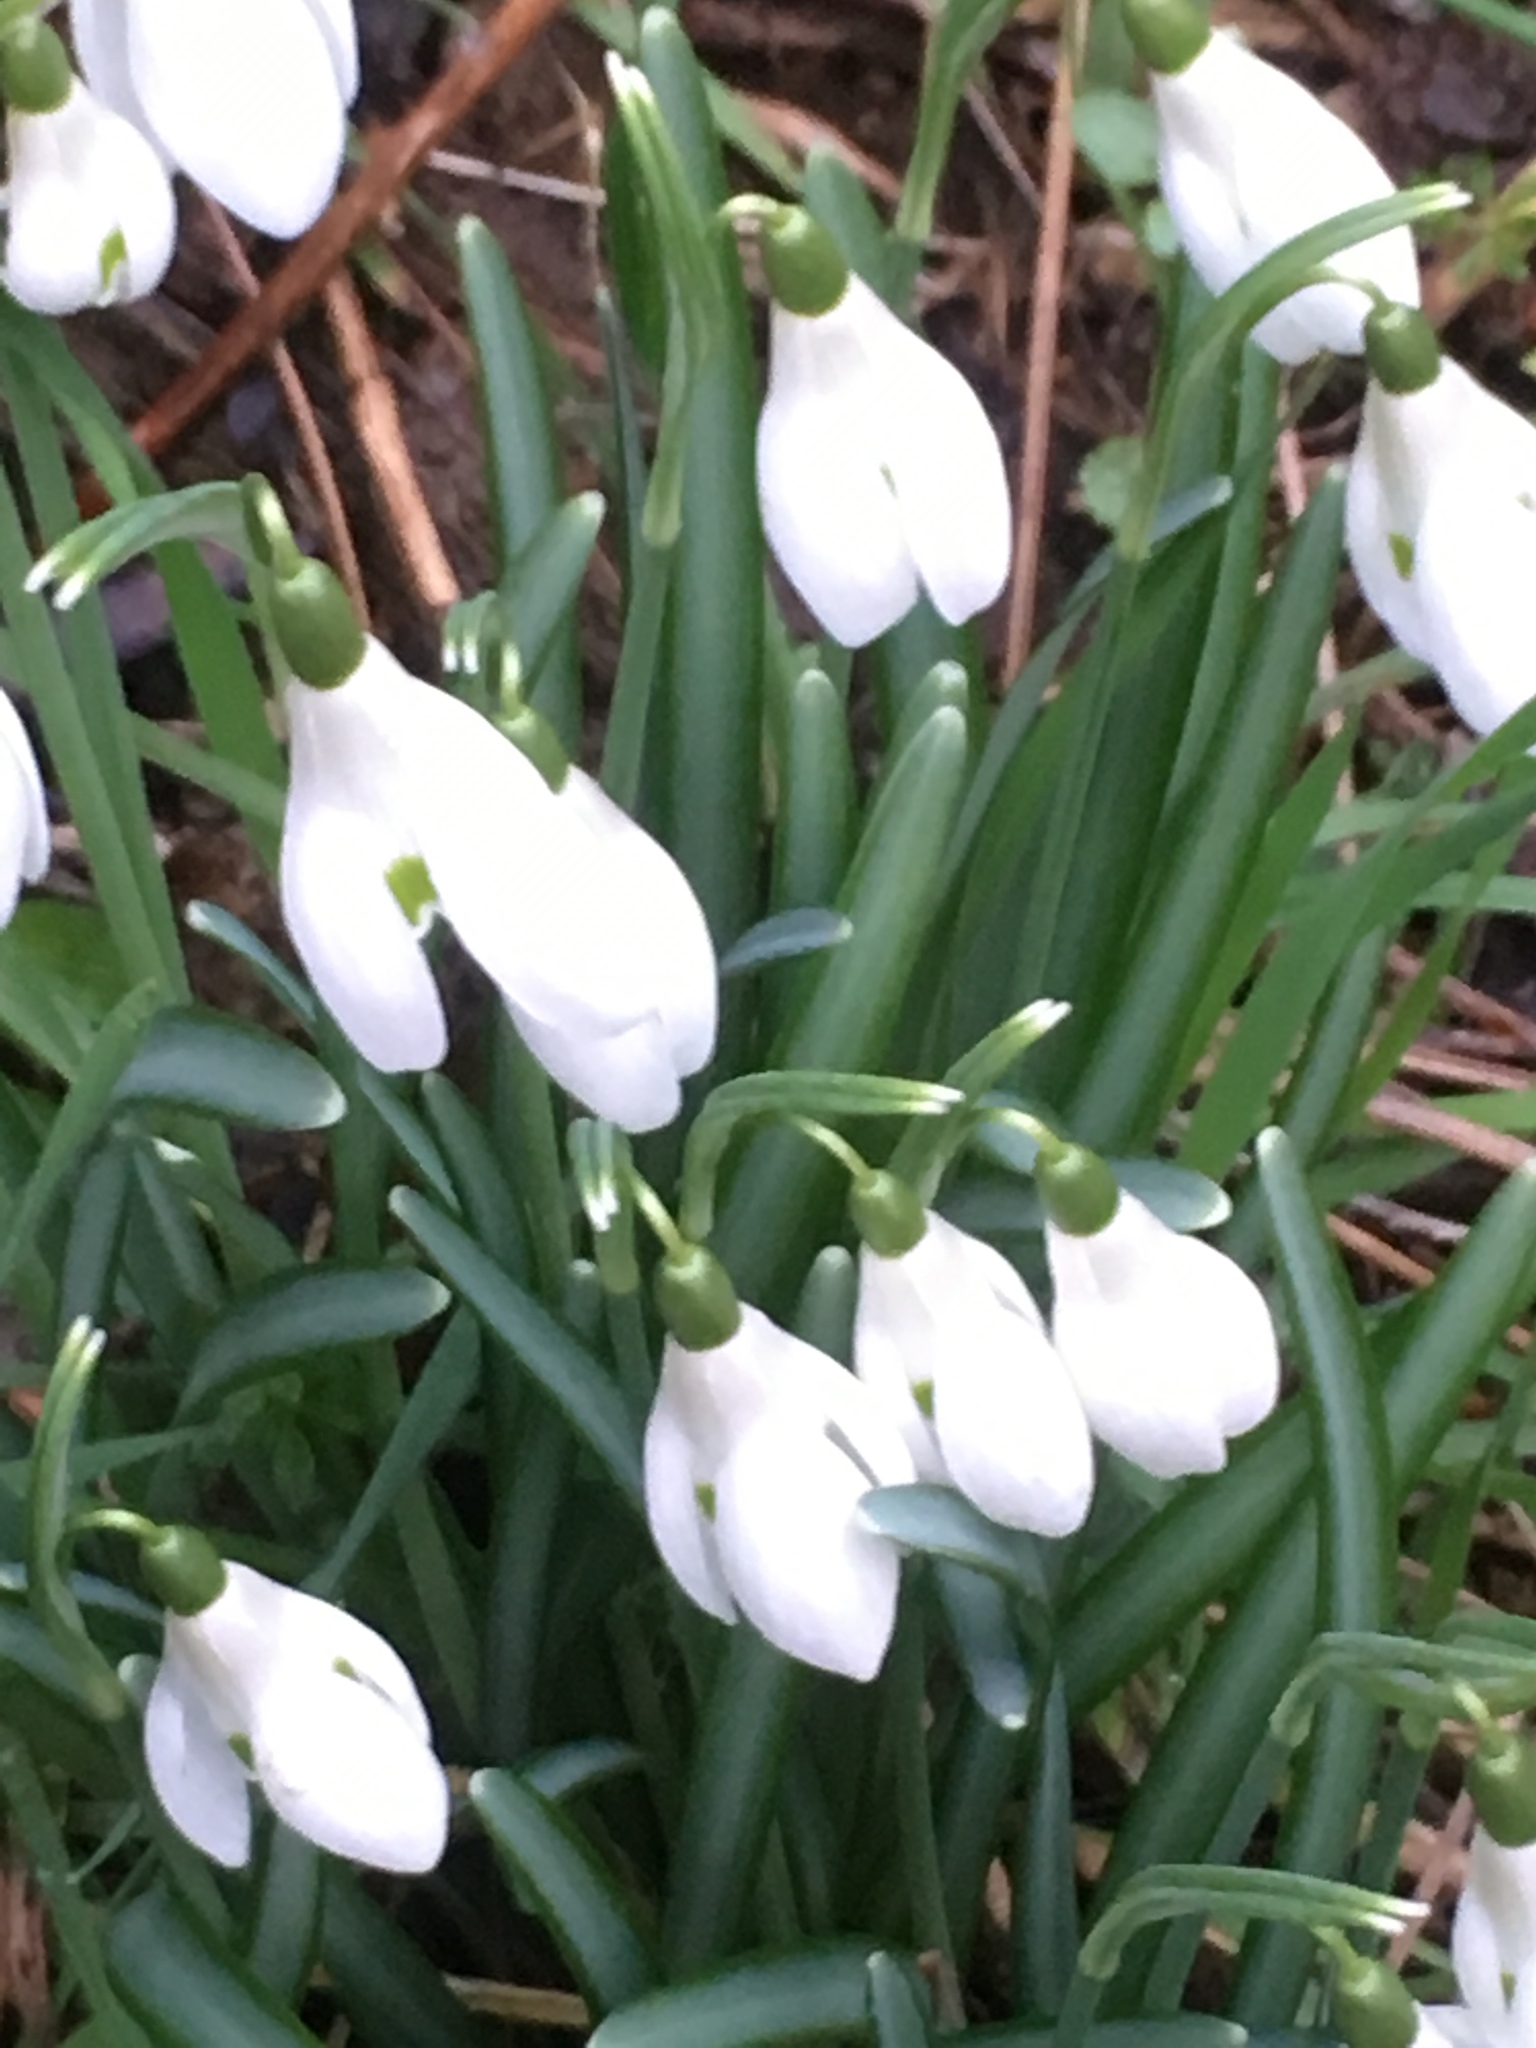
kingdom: Plantae
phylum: Tracheophyta
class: Liliopsida
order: Asparagales
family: Amaryllidaceae
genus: Galanthus
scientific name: Galanthus nivalis
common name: Snowdrop
